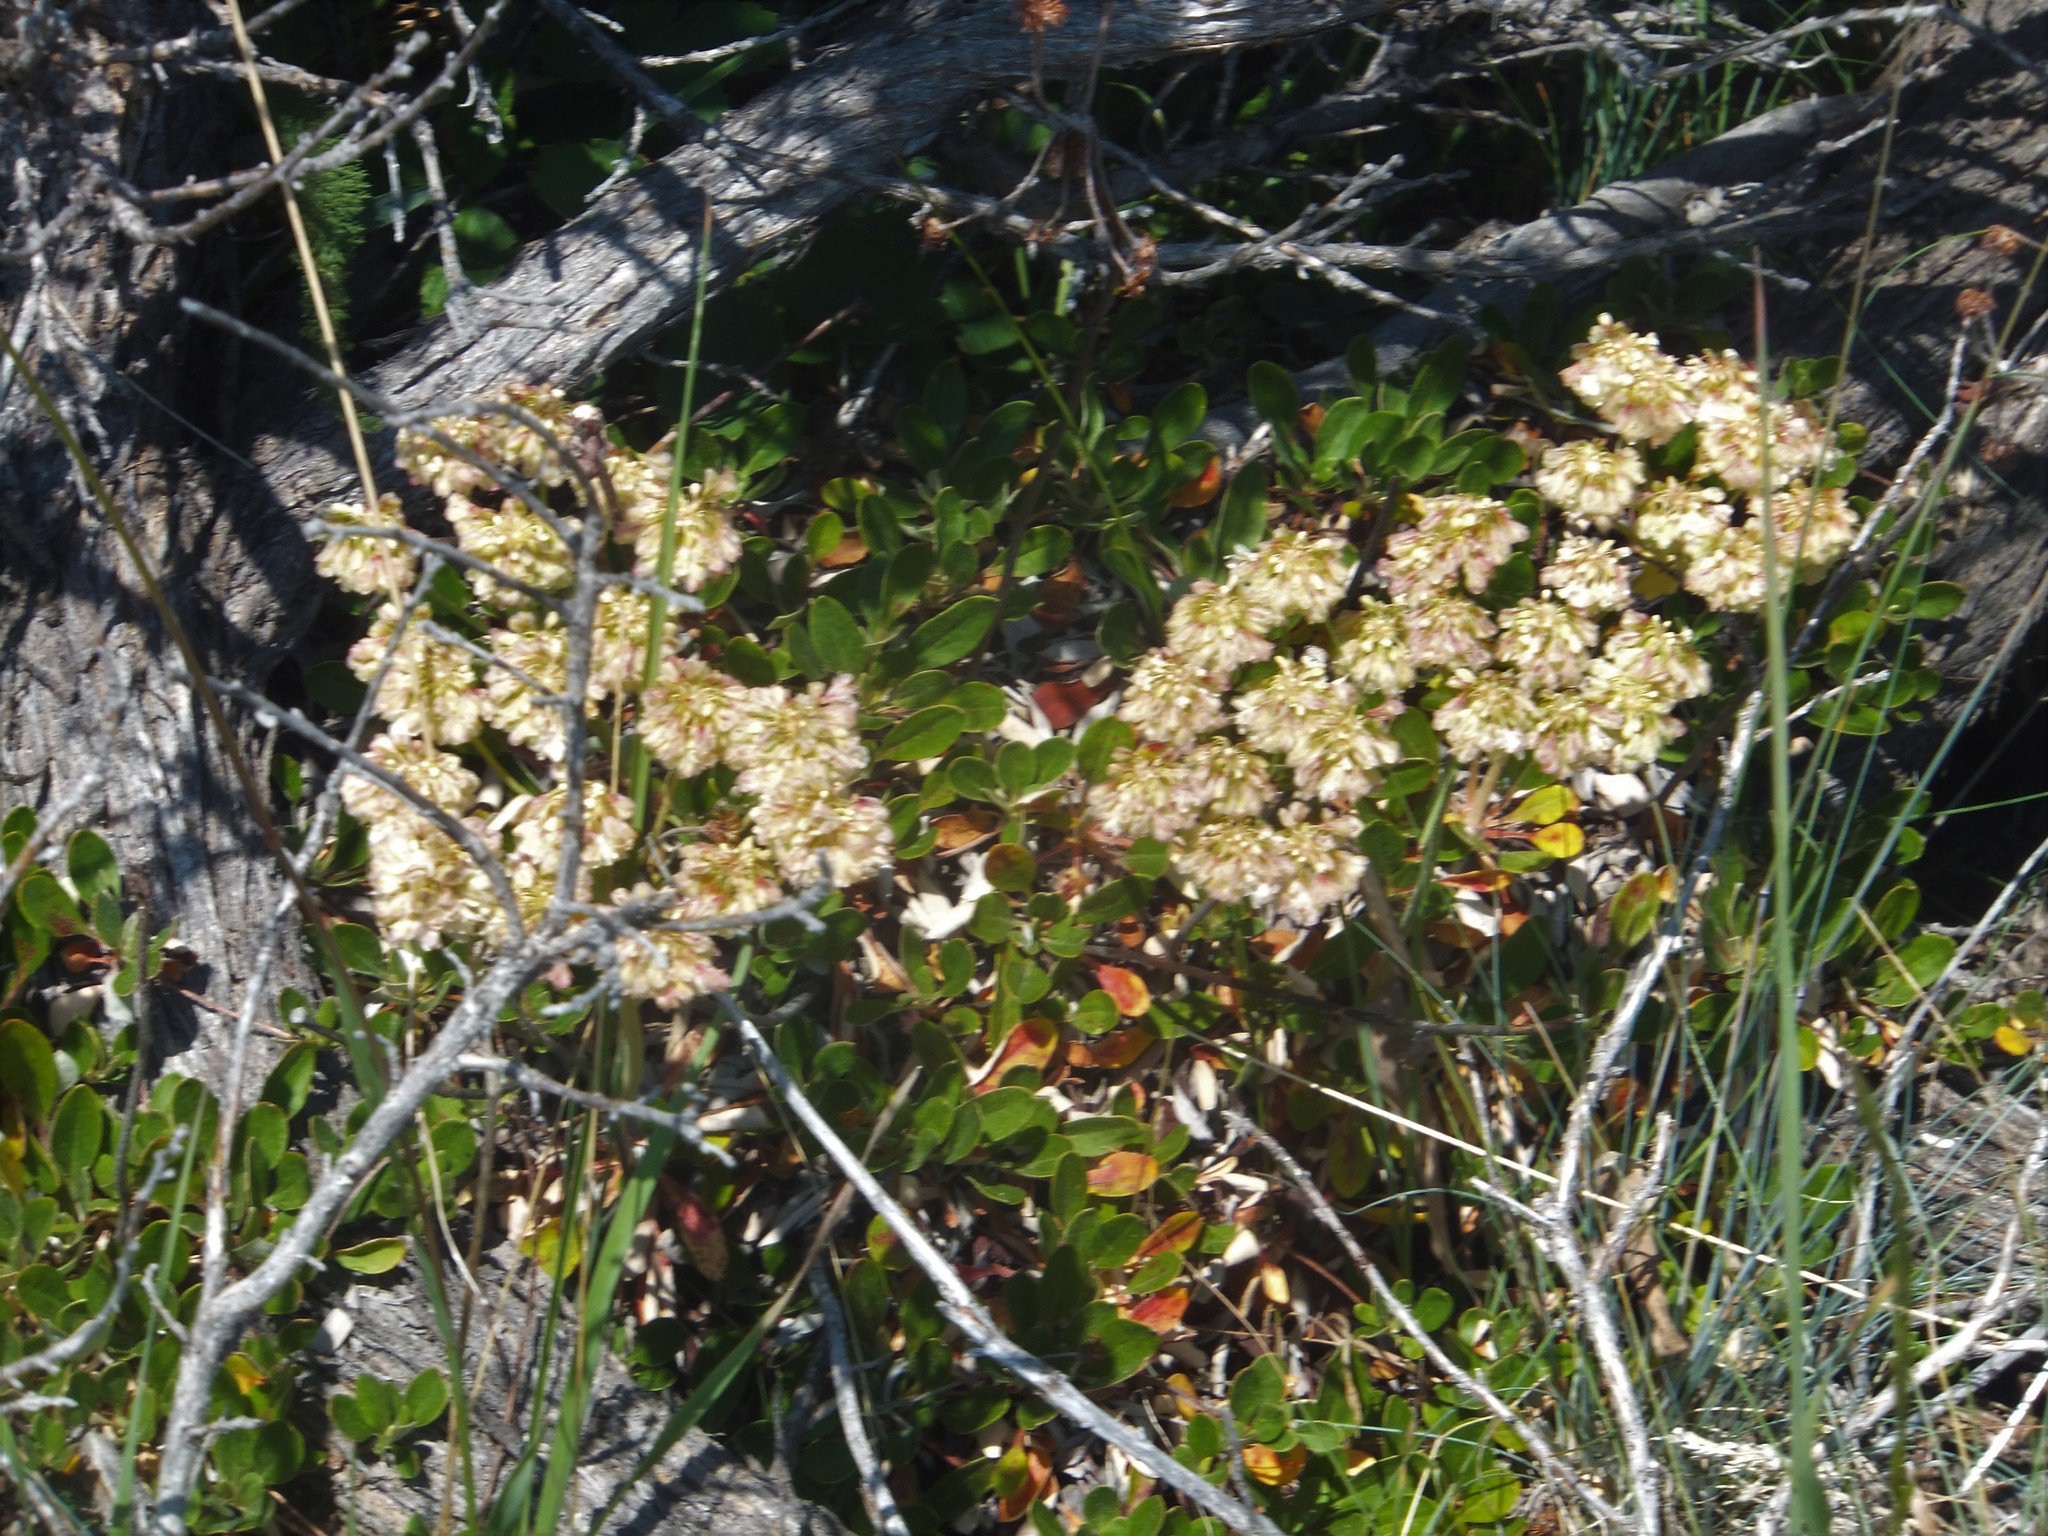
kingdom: Plantae
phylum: Tracheophyta
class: Magnoliopsida
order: Caryophyllales
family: Polygonaceae
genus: Eriogonum
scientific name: Eriogonum umbellatum
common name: Sulfur-buckwheat
